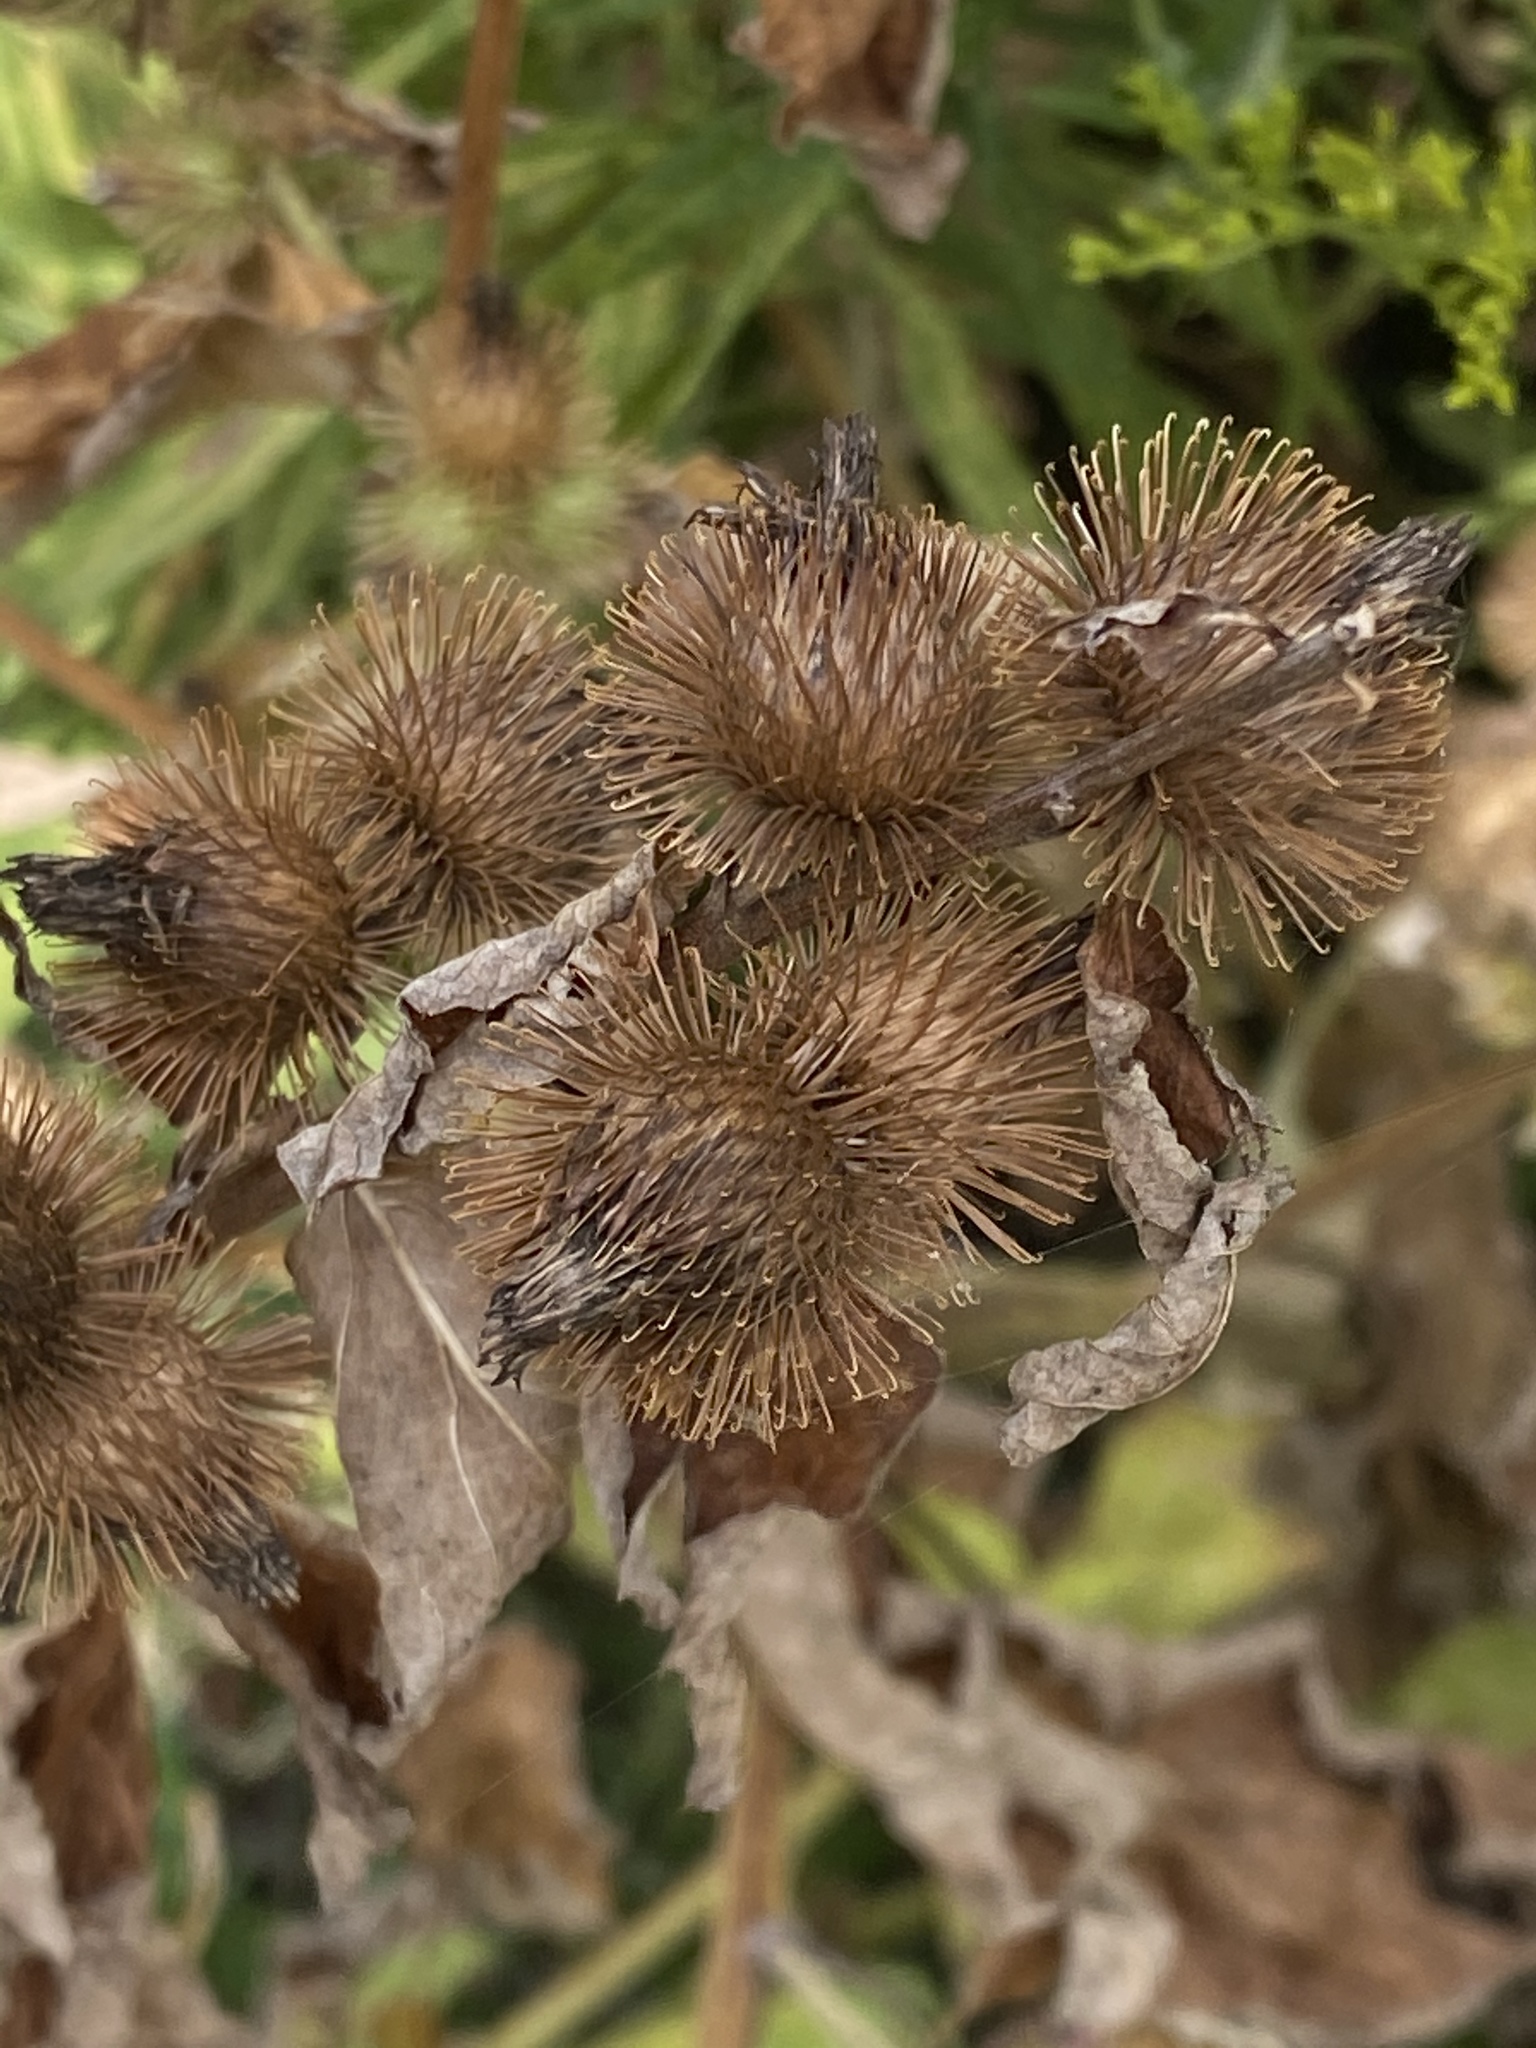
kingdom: Plantae
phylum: Tracheophyta
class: Magnoliopsida
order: Asterales
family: Asteraceae
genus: Arctium
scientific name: Arctium minus
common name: Lesser burdock
